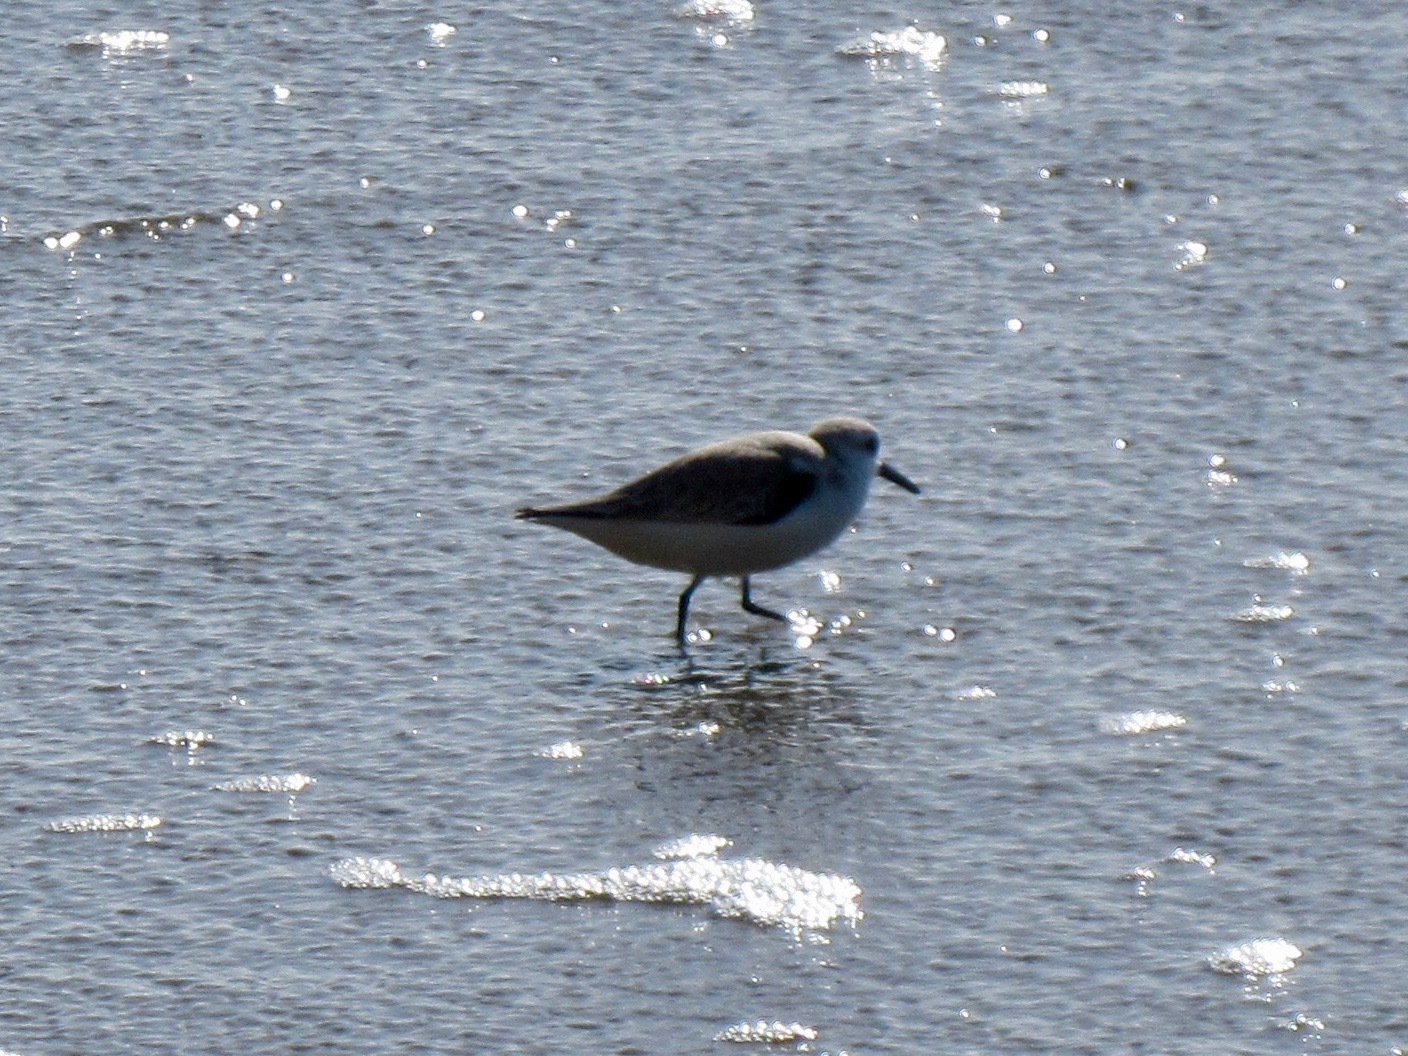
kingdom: Animalia
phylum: Chordata
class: Aves
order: Charadriiformes
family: Scolopacidae
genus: Calidris
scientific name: Calidris alba
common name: Sanderling
